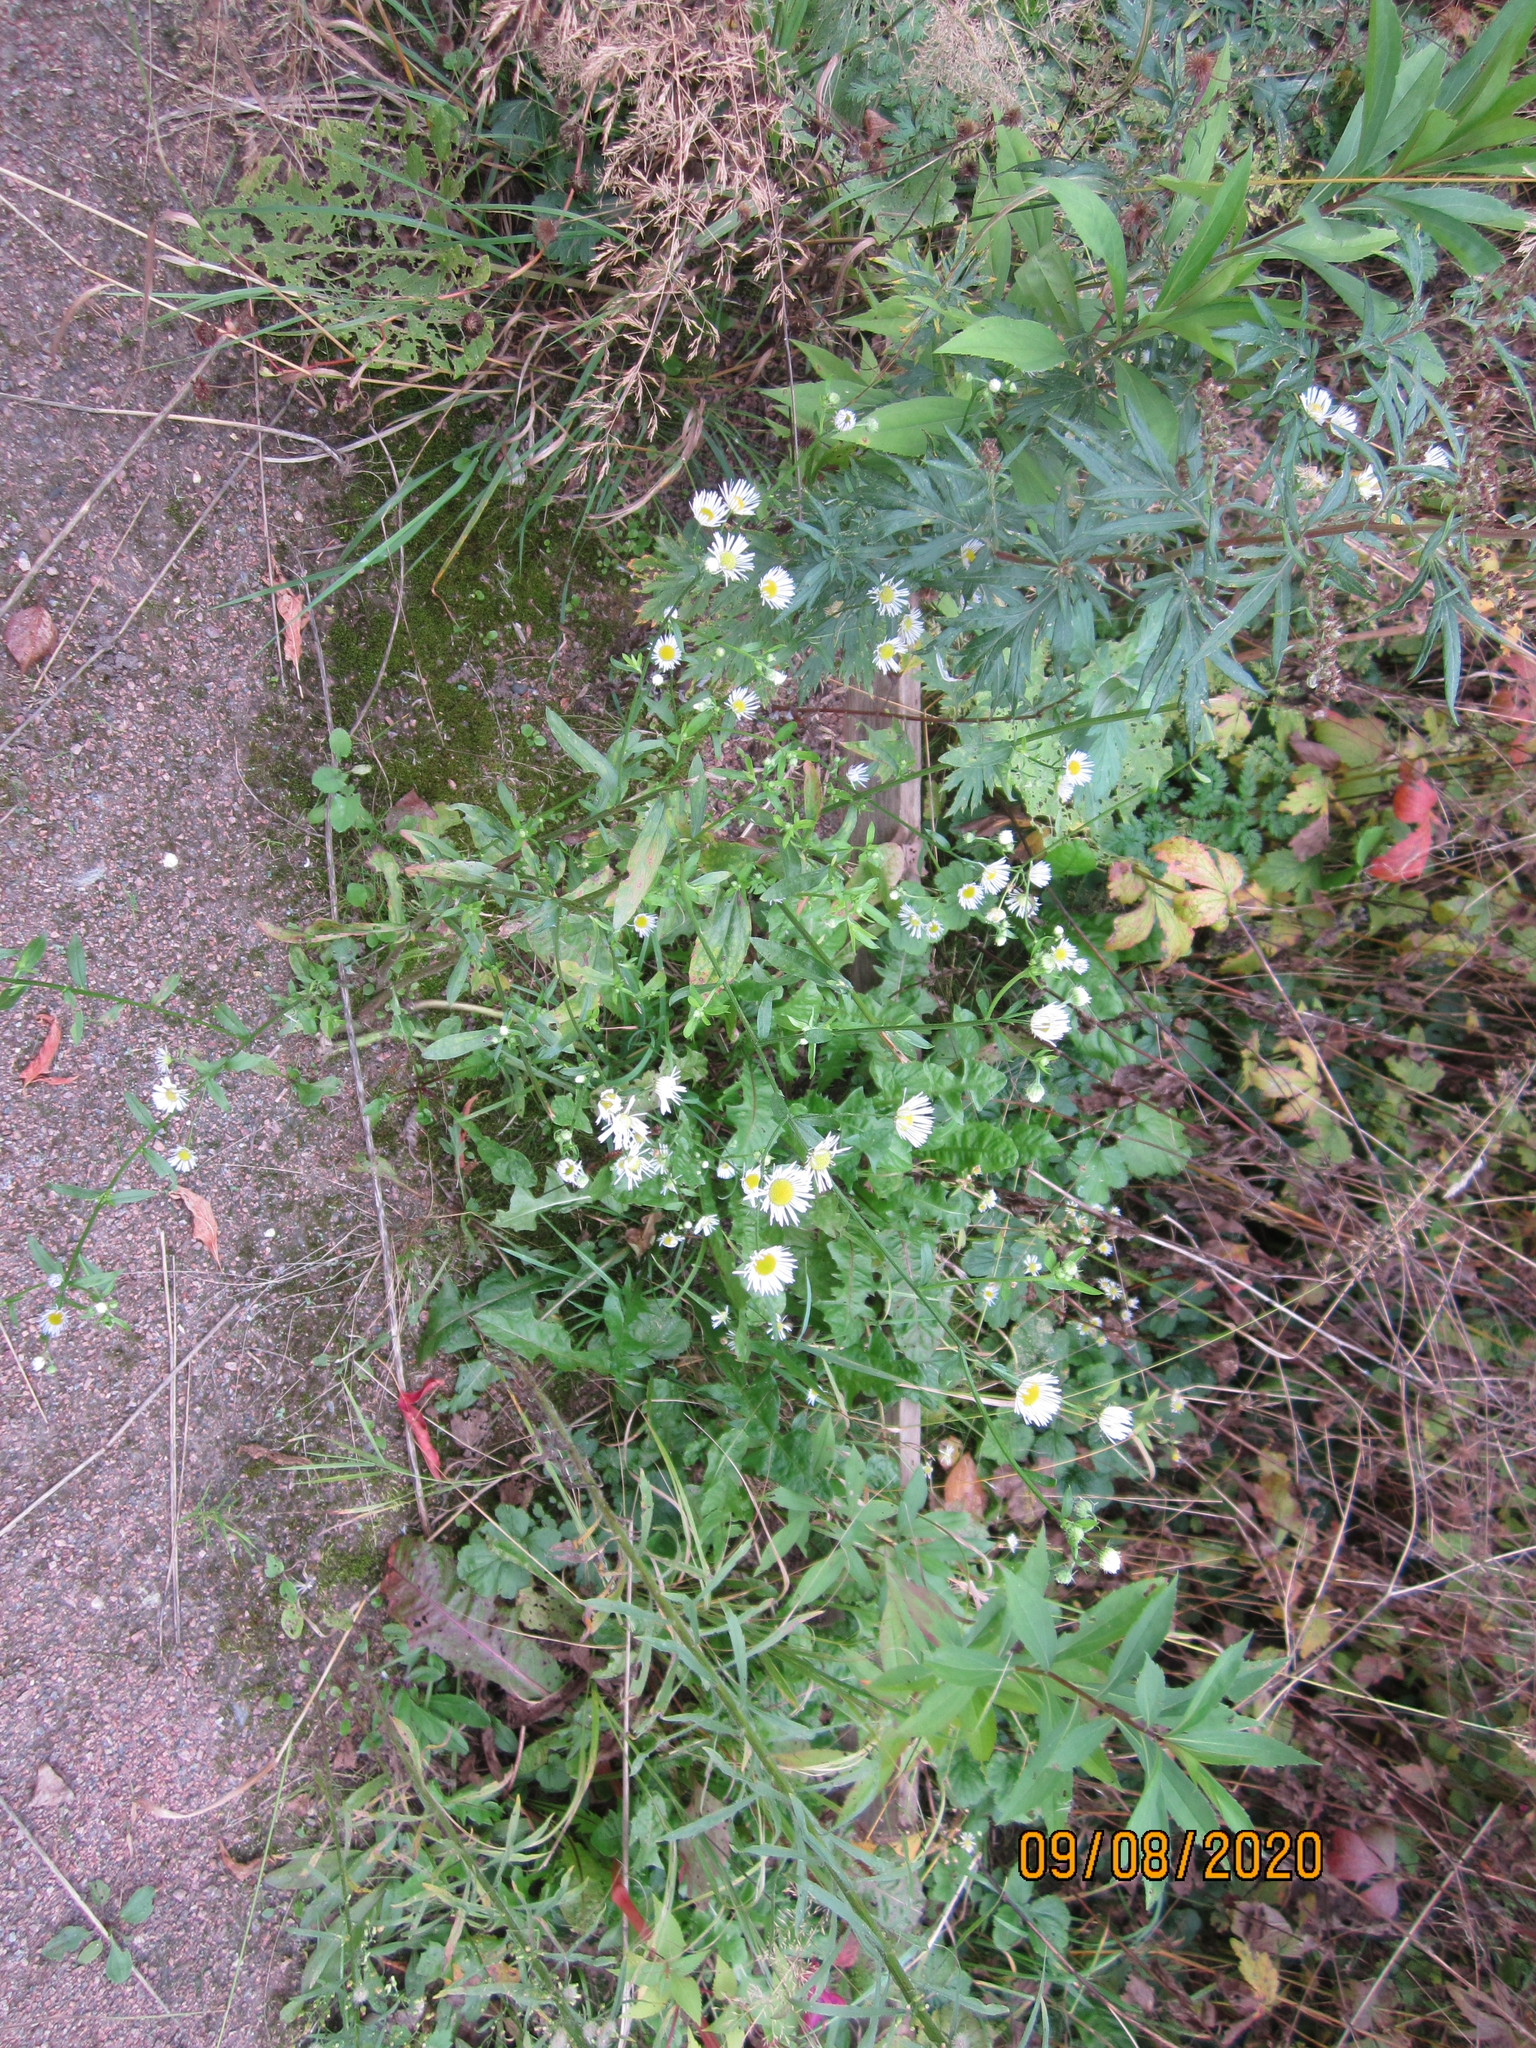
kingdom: Plantae
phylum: Tracheophyta
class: Magnoliopsida
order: Asterales
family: Asteraceae
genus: Erigeron
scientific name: Erigeron annuus
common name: Tall fleabane
